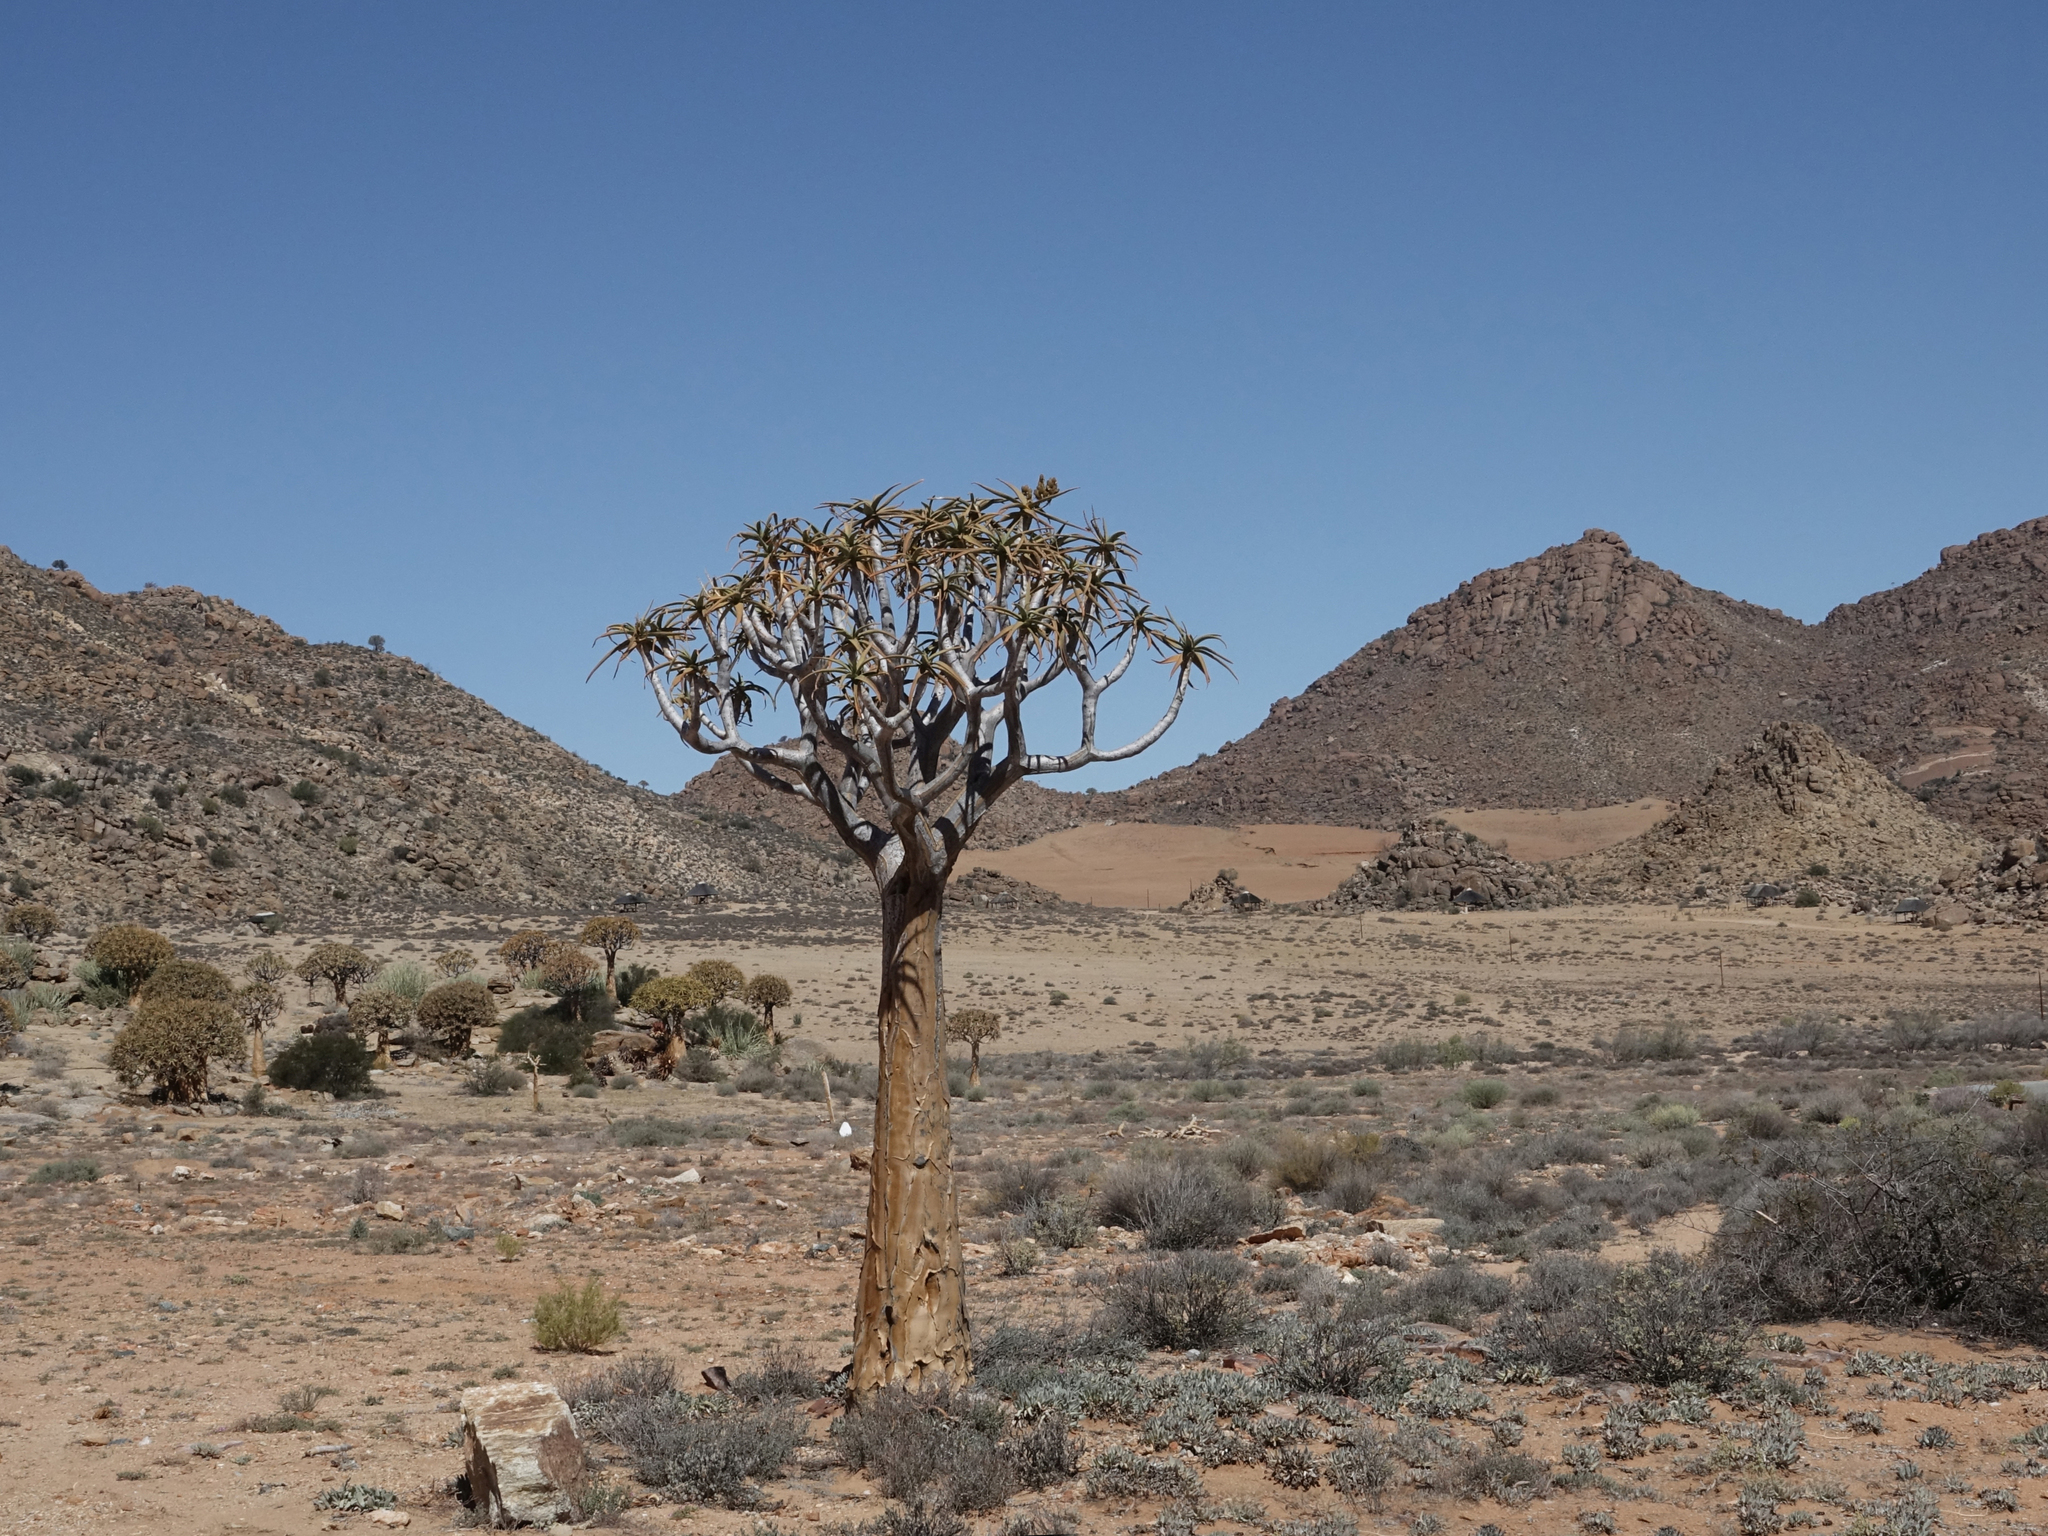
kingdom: Plantae
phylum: Tracheophyta
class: Liliopsida
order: Asparagales
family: Asphodelaceae
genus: Aloidendron
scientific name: Aloidendron dichotomum
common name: Quiver tree
